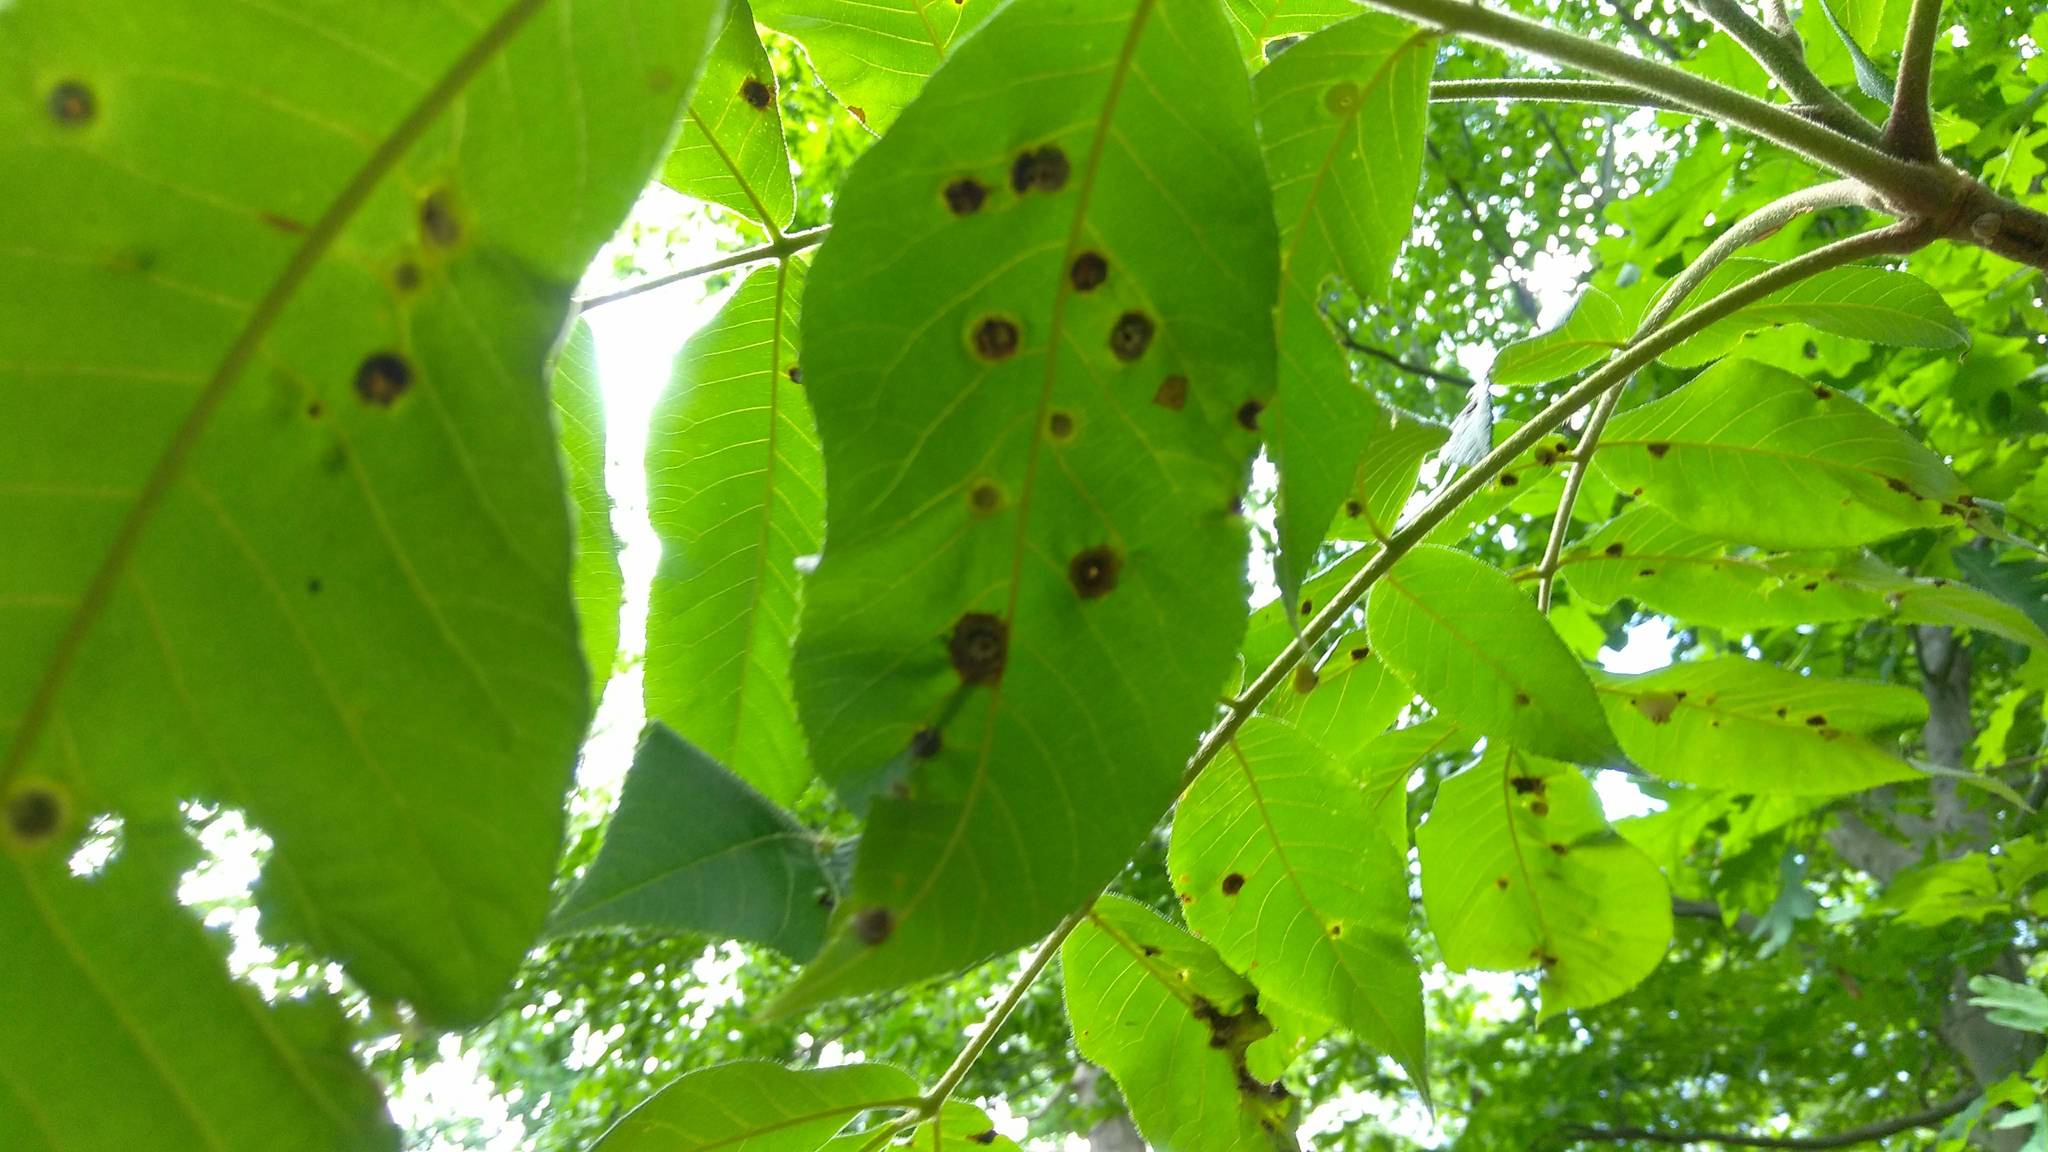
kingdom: Animalia
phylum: Arthropoda
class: Insecta
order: Hemiptera
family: Phylloxeridae
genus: Phylloxera
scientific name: Phylloxera caryae-avellana
